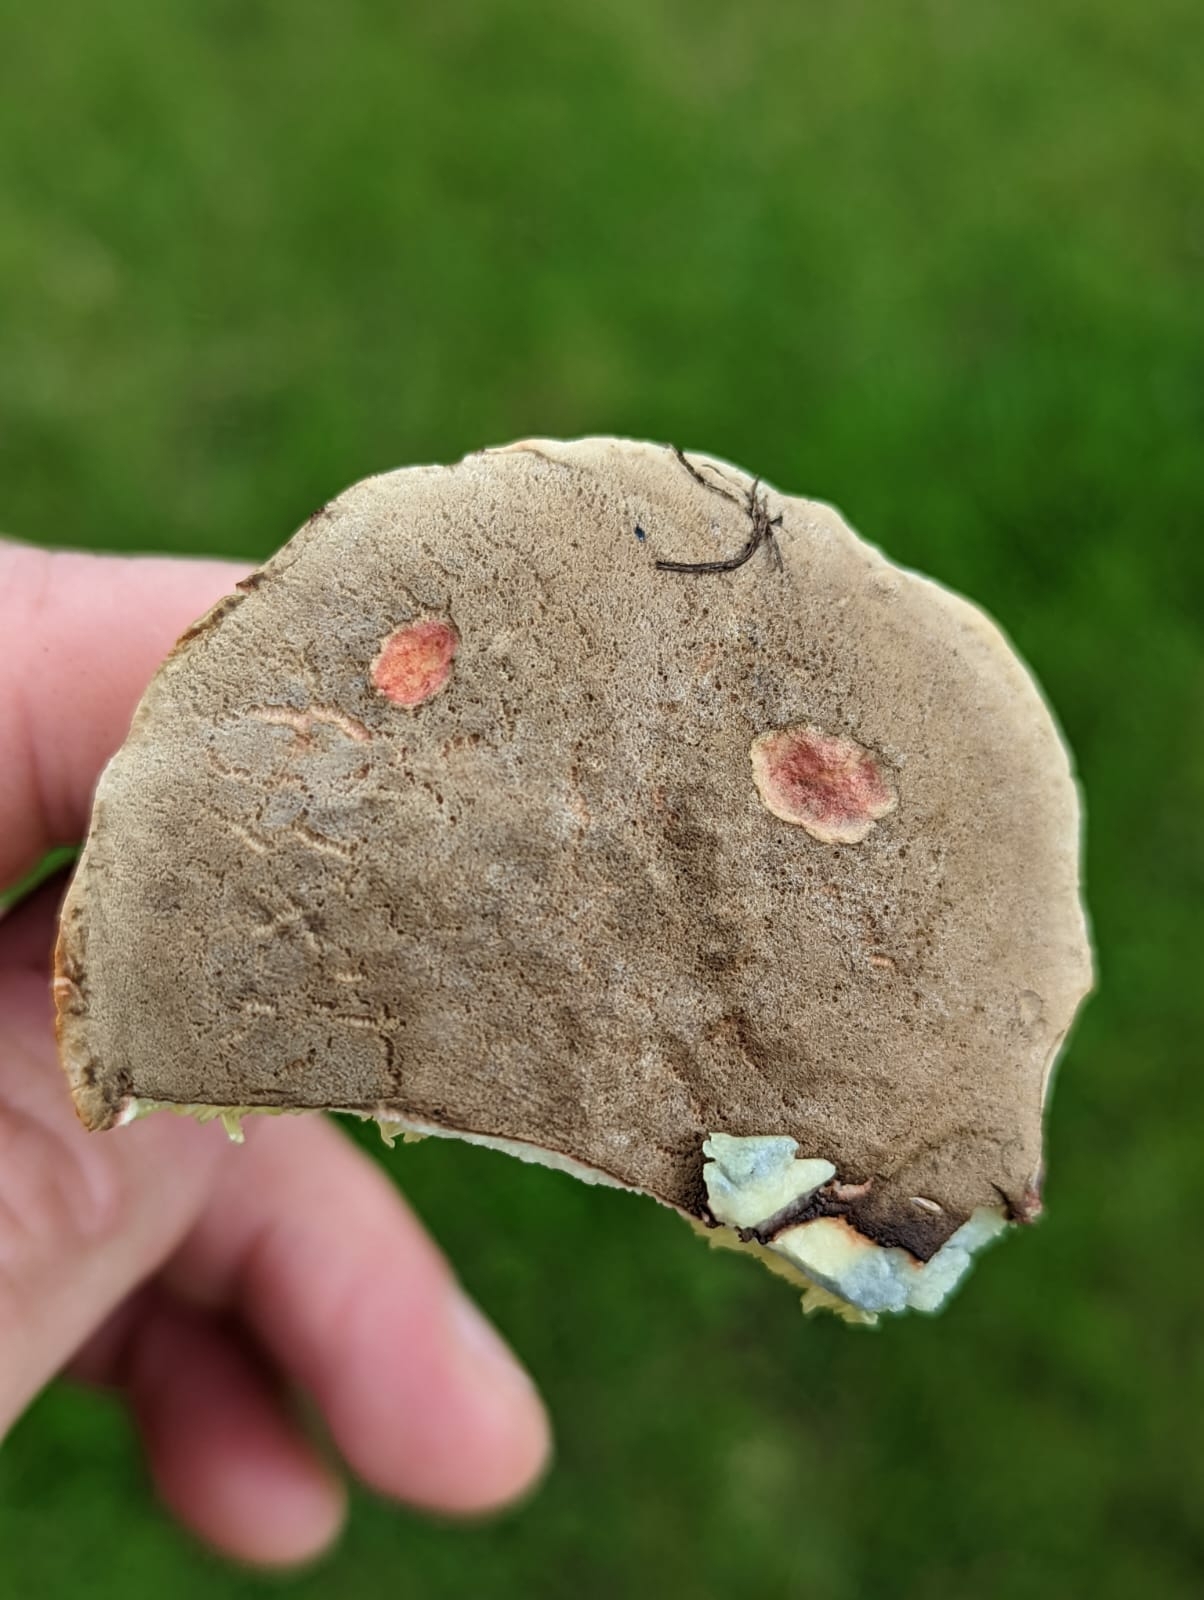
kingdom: Fungi
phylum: Basidiomycota
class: Agaricomycetes
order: Boletales
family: Boletaceae
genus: Xerocomellus
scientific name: Xerocomellus cisalpinus
